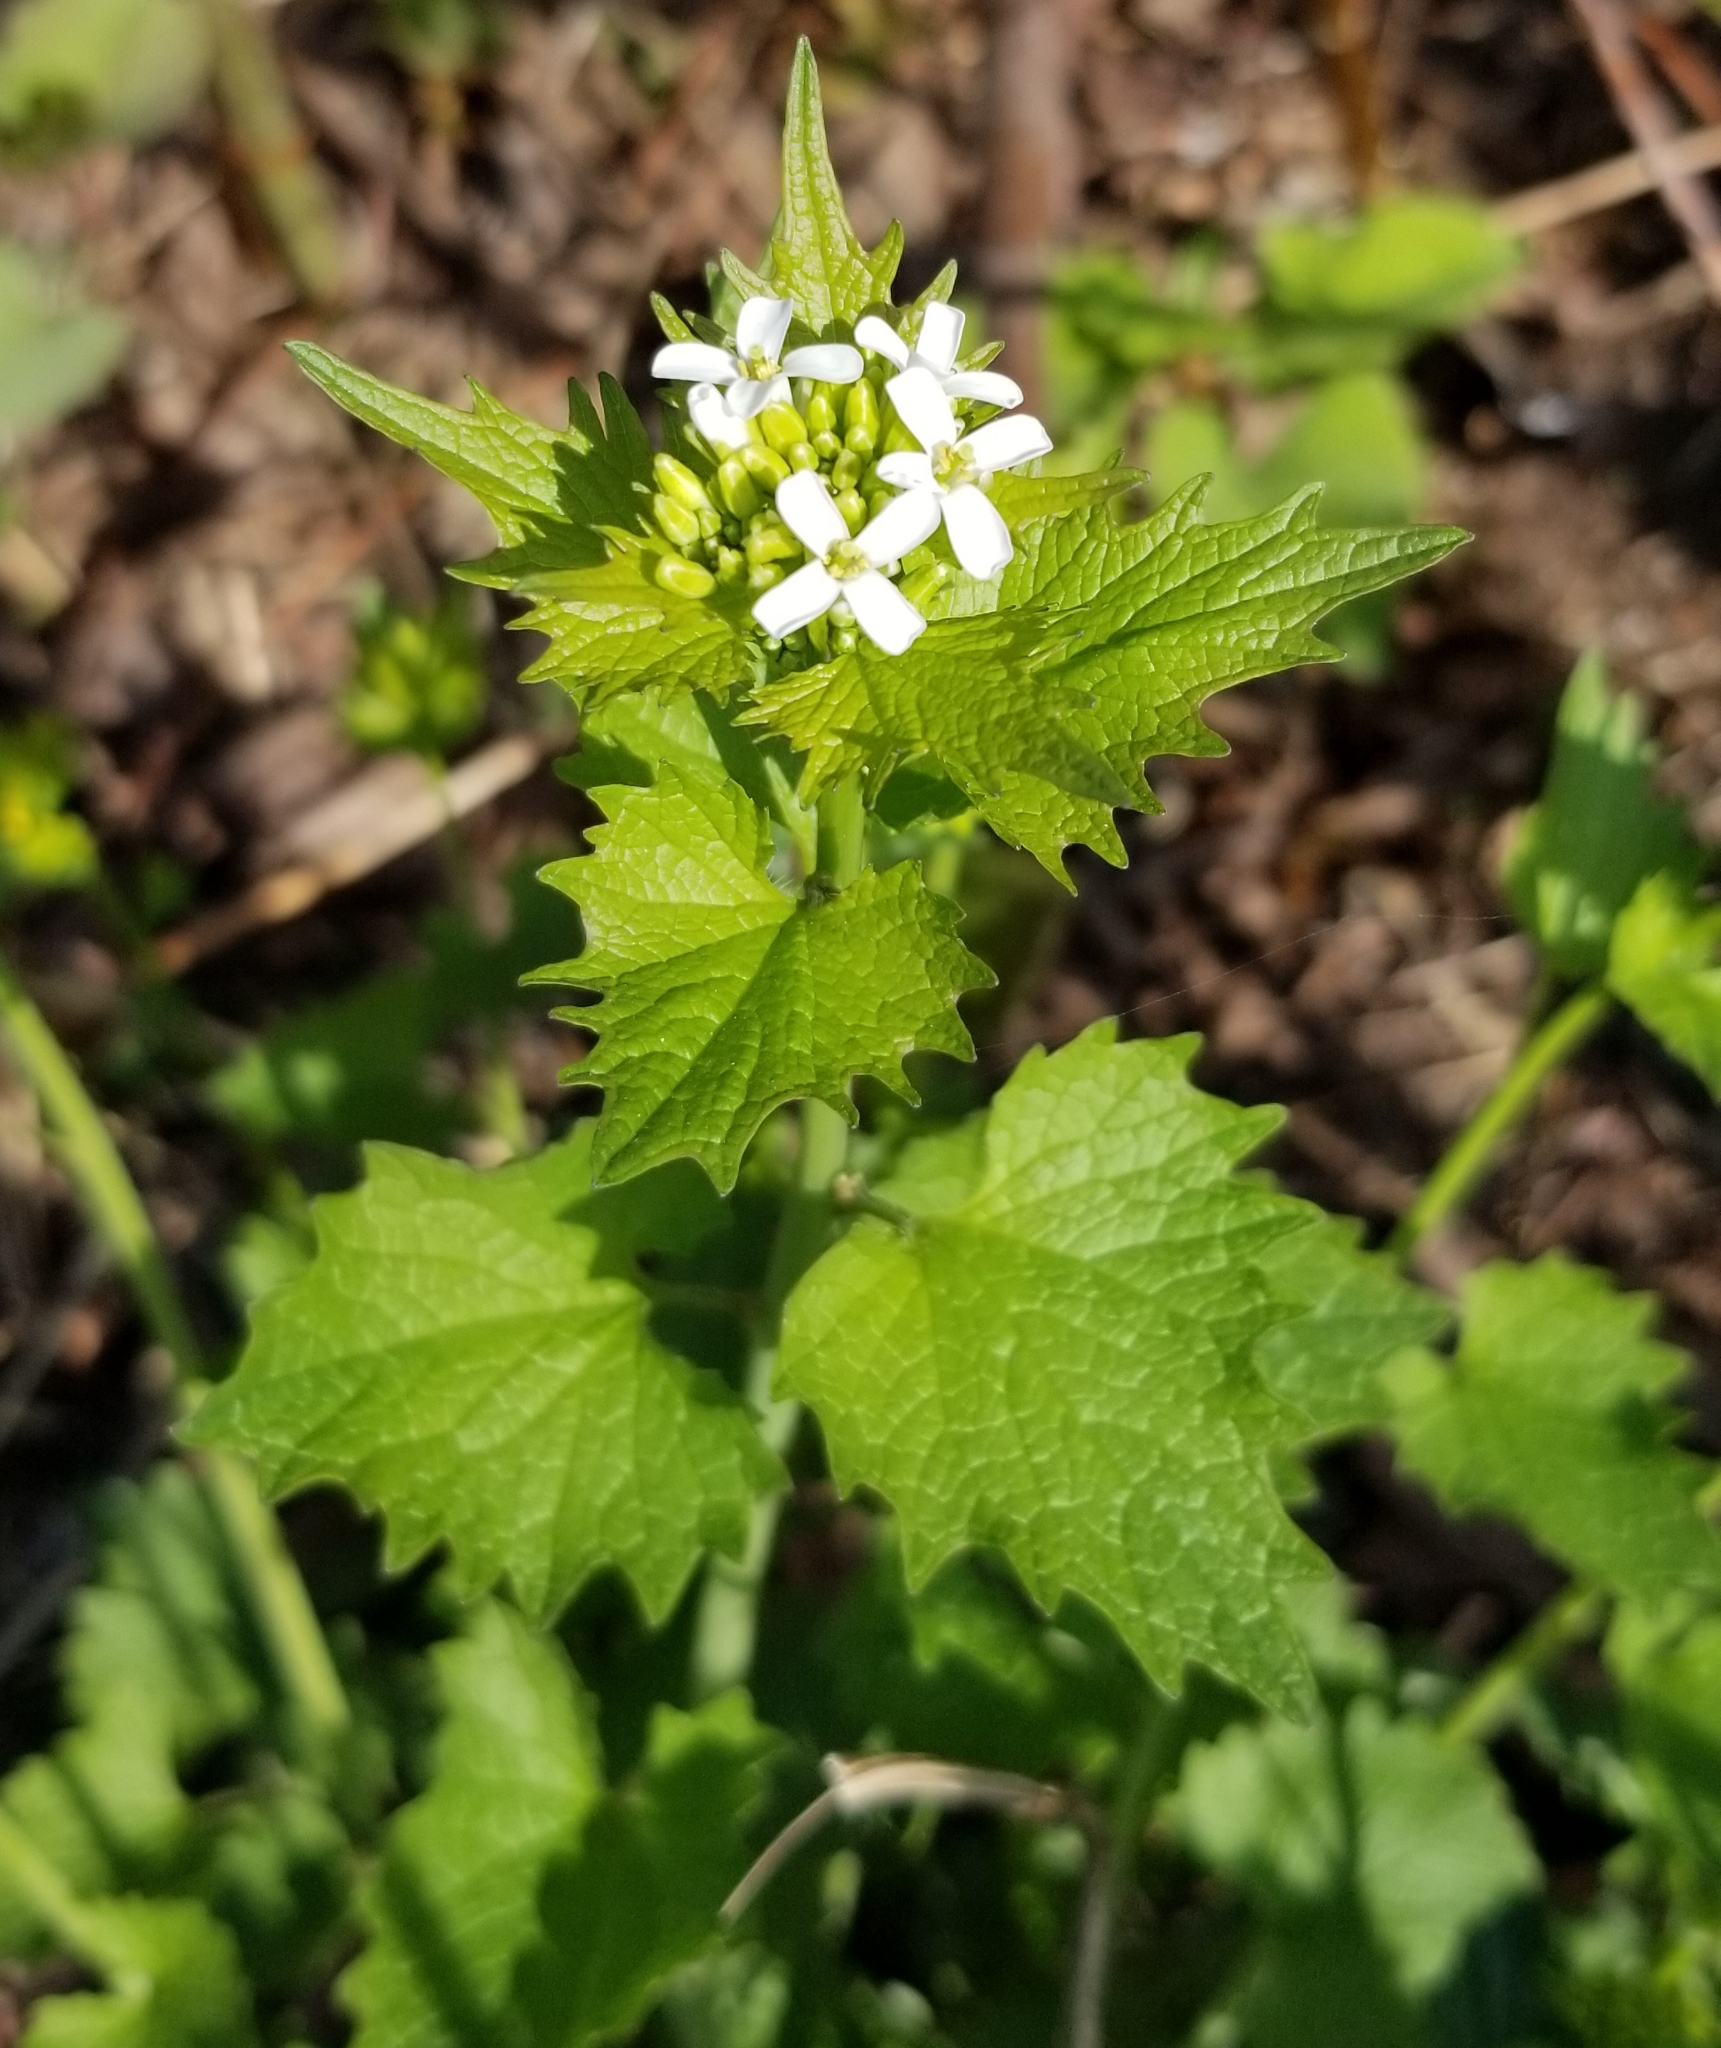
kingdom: Plantae
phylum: Tracheophyta
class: Magnoliopsida
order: Brassicales
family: Brassicaceae
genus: Alliaria
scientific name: Alliaria petiolata
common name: Garlic mustard
